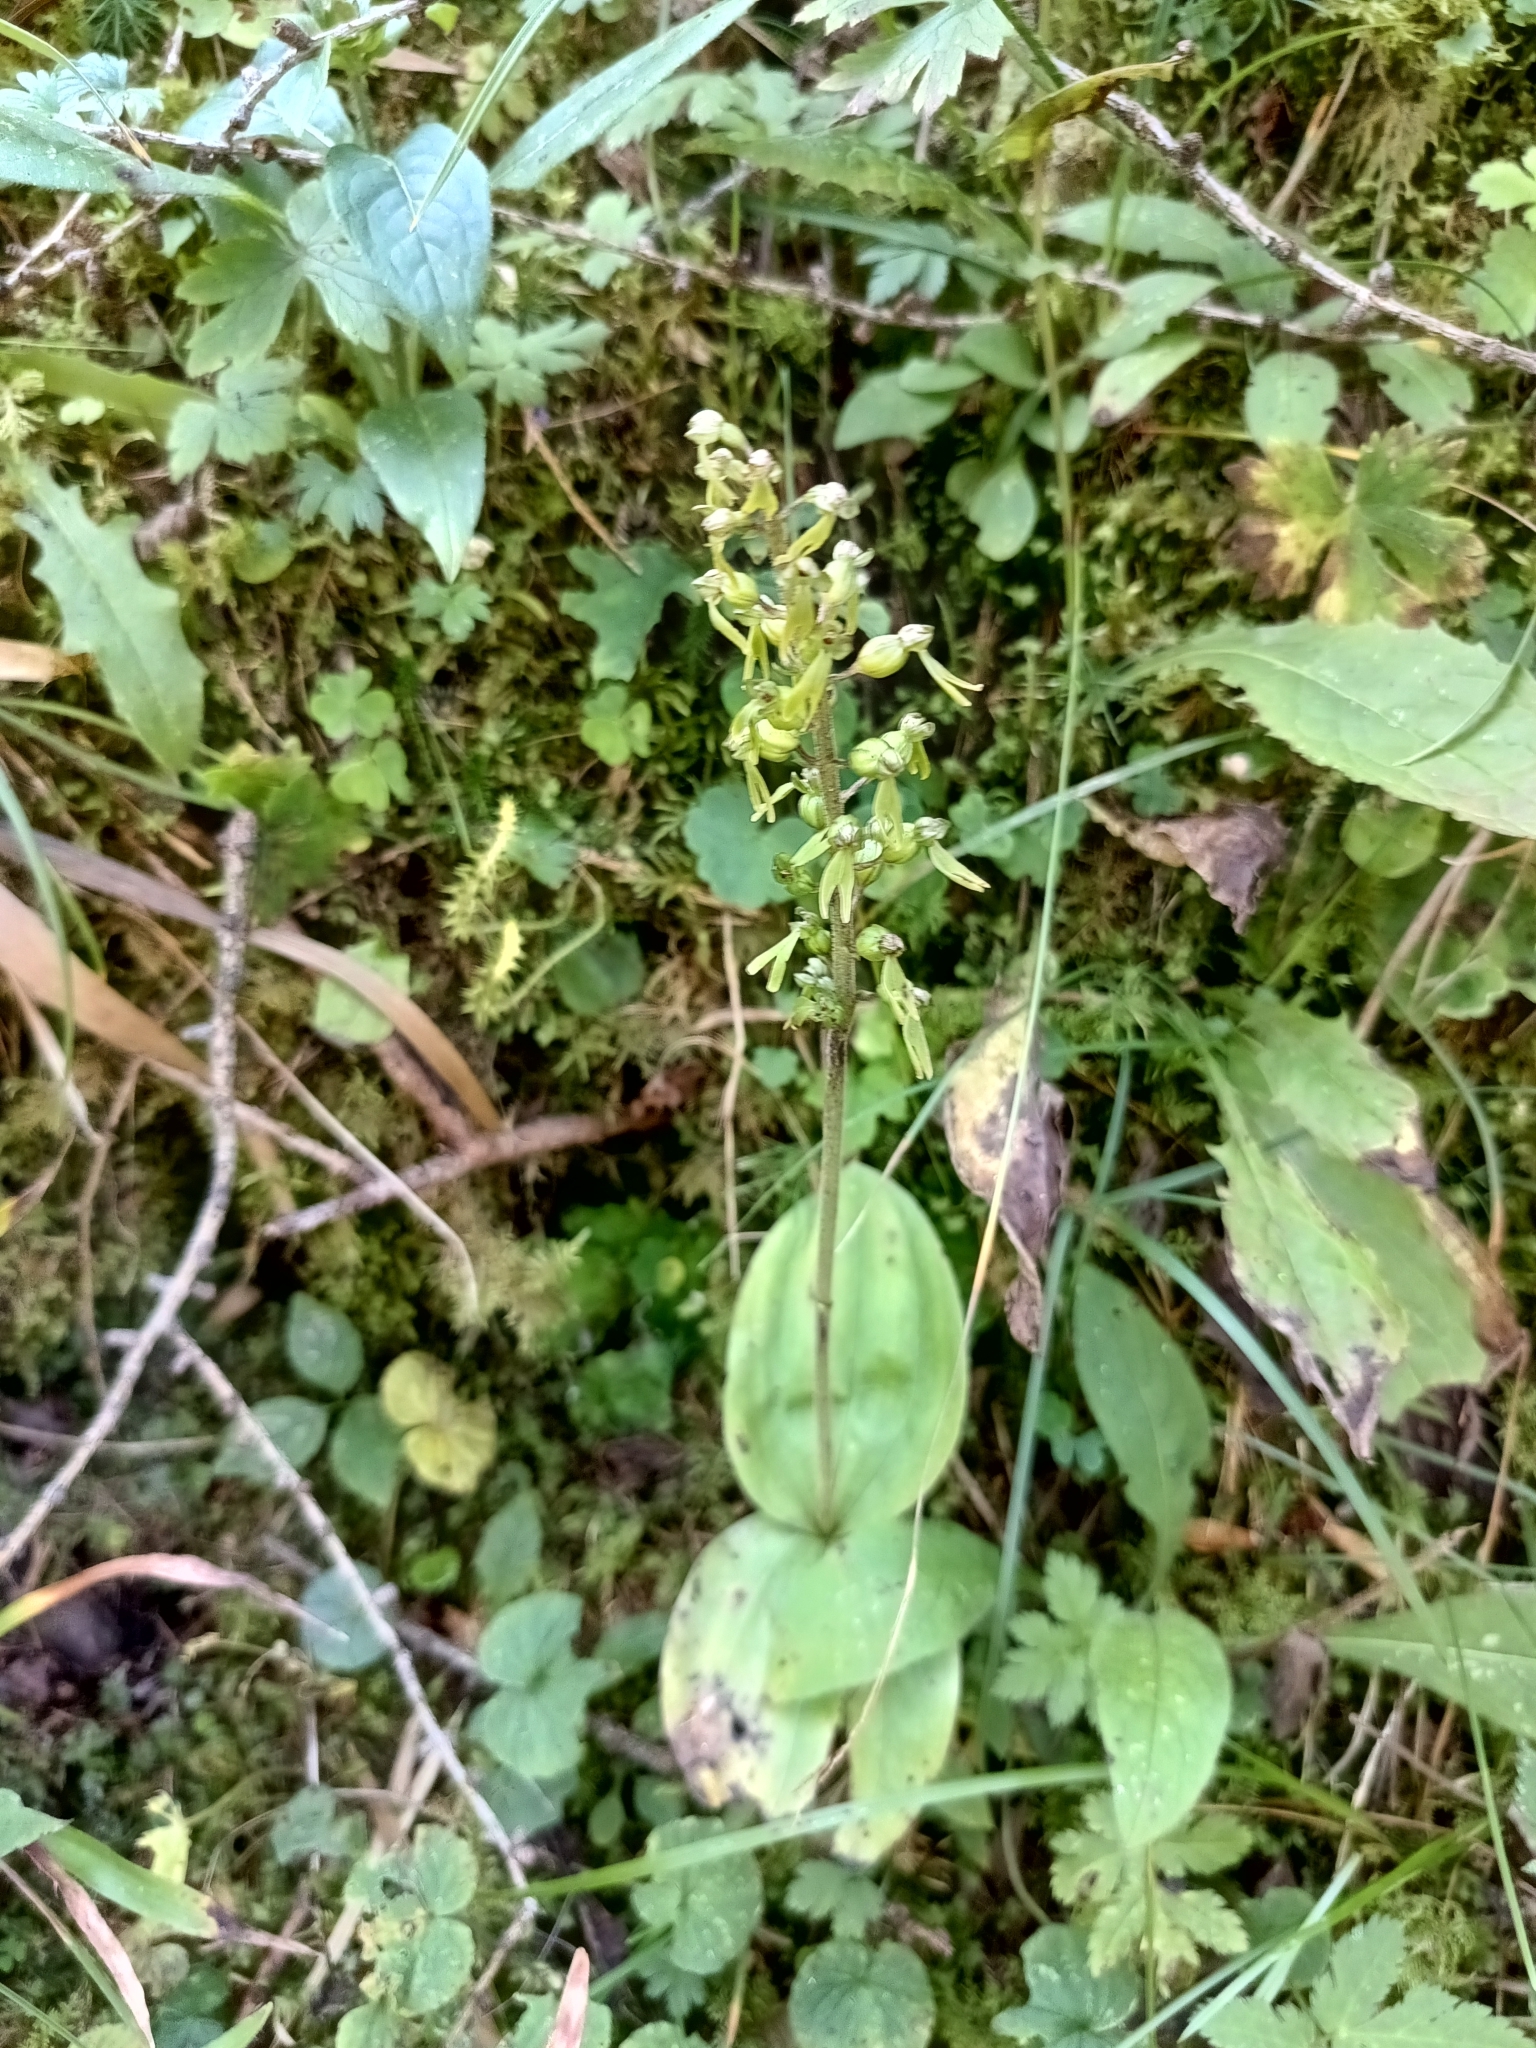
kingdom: Plantae
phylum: Tracheophyta
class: Liliopsida
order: Asparagales
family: Orchidaceae
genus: Neottia
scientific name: Neottia ovata
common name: Common twayblade
